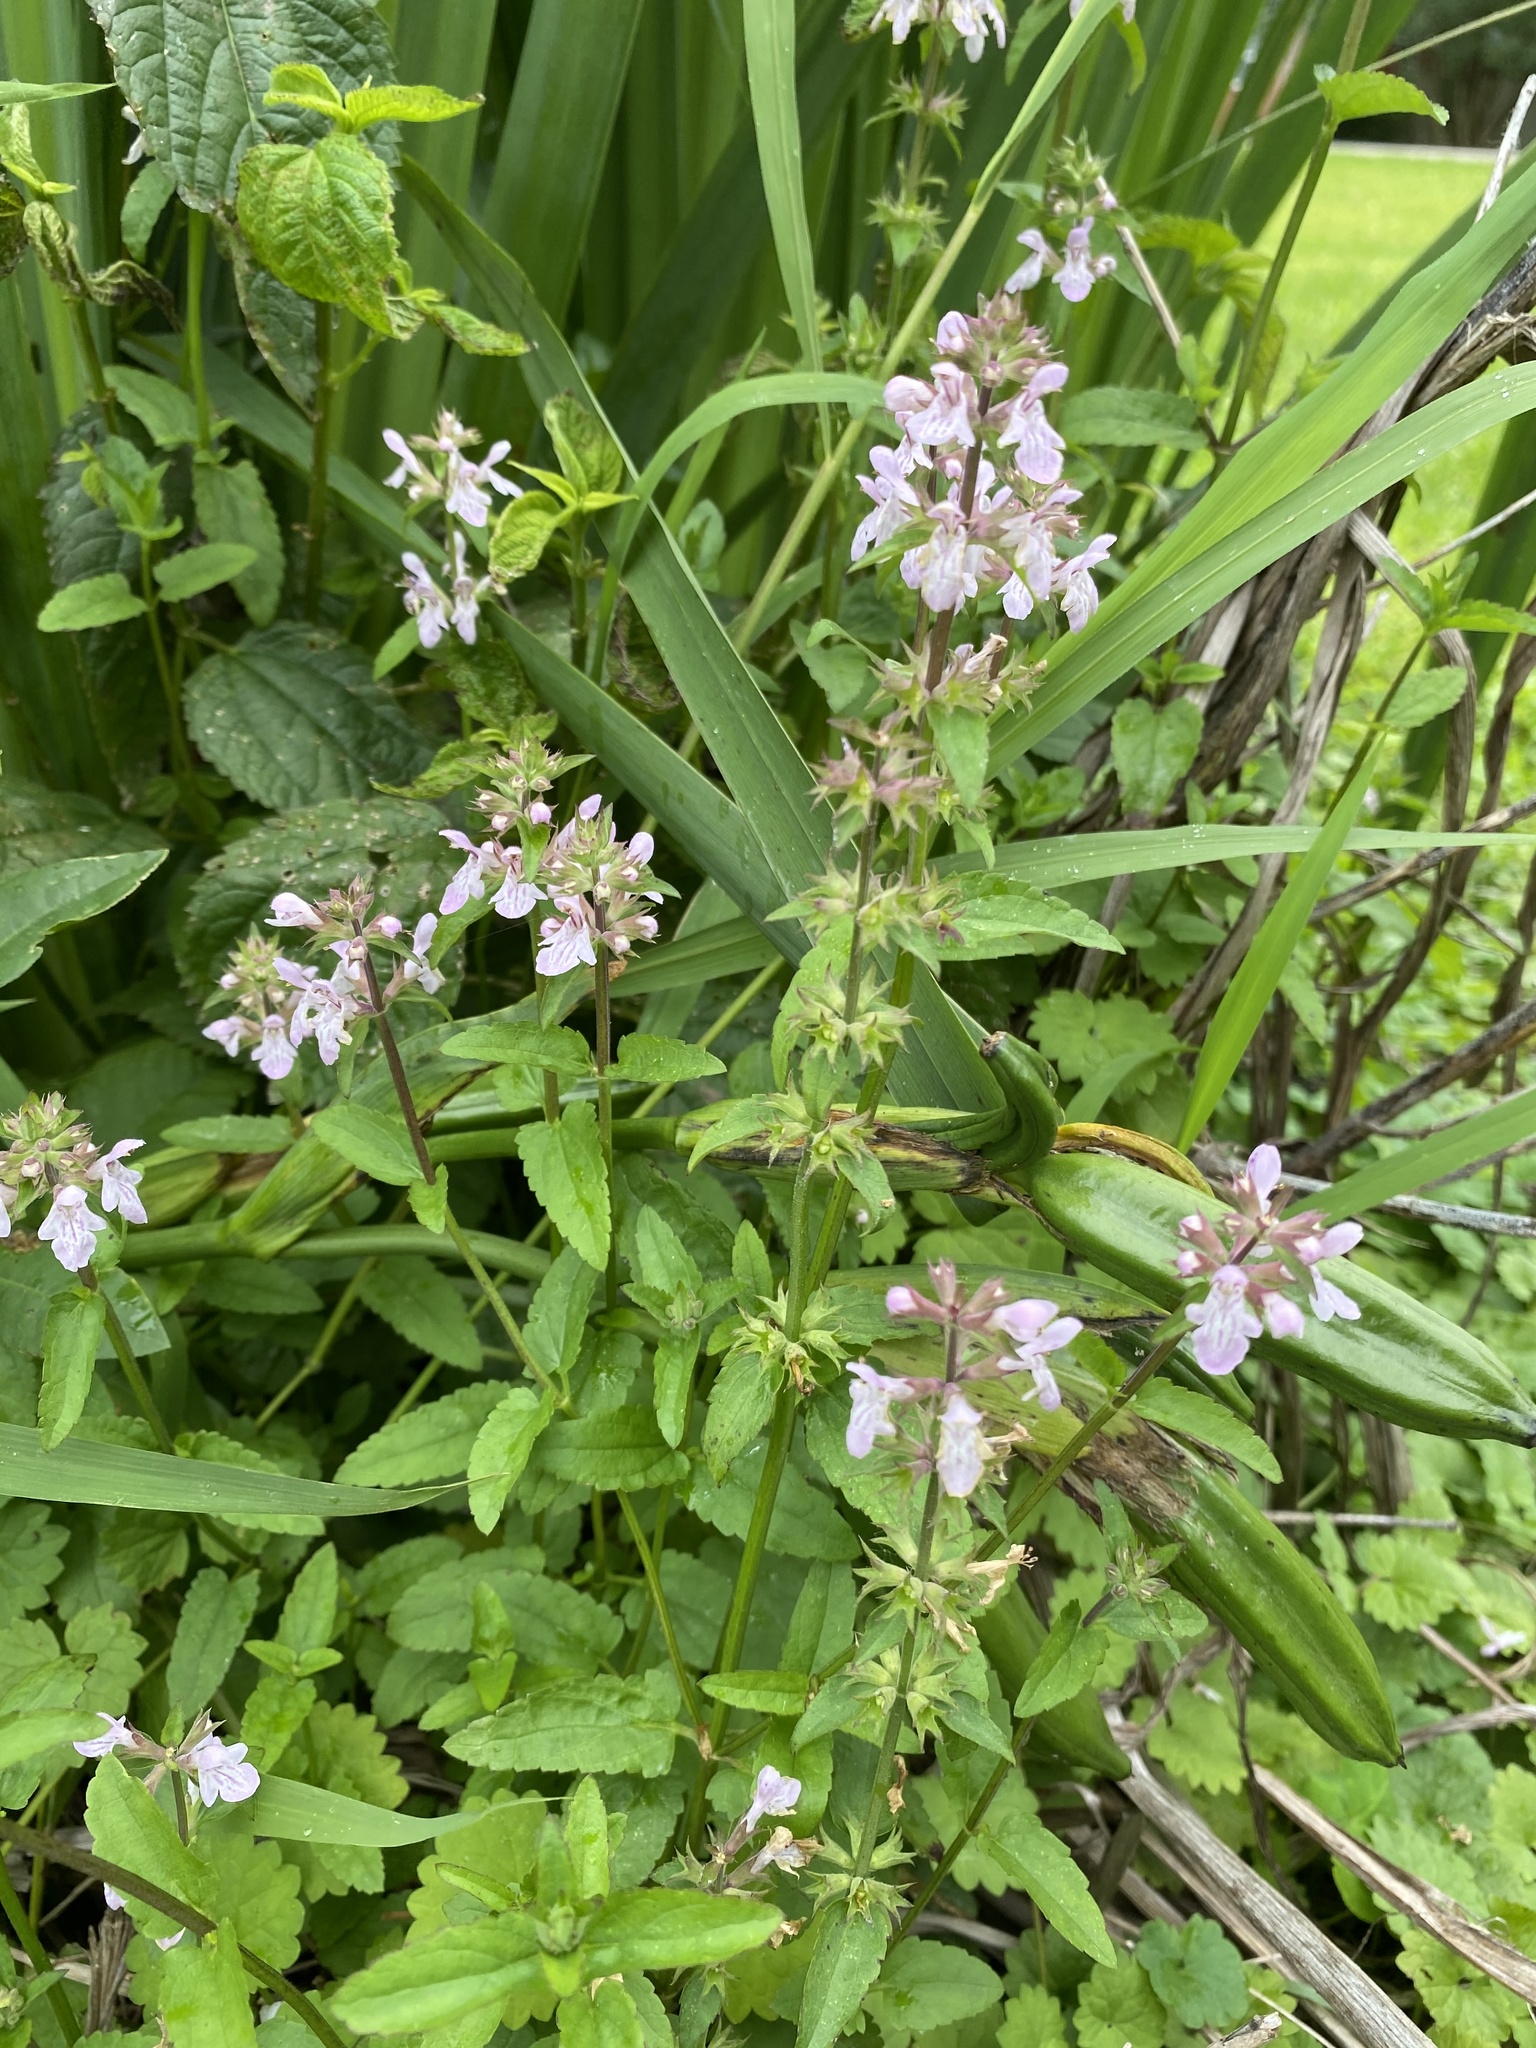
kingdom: Plantae
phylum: Tracheophyta
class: Magnoliopsida
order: Lamiales
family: Lamiaceae
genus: Stachys
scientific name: Stachys floridana
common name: Florida betony
